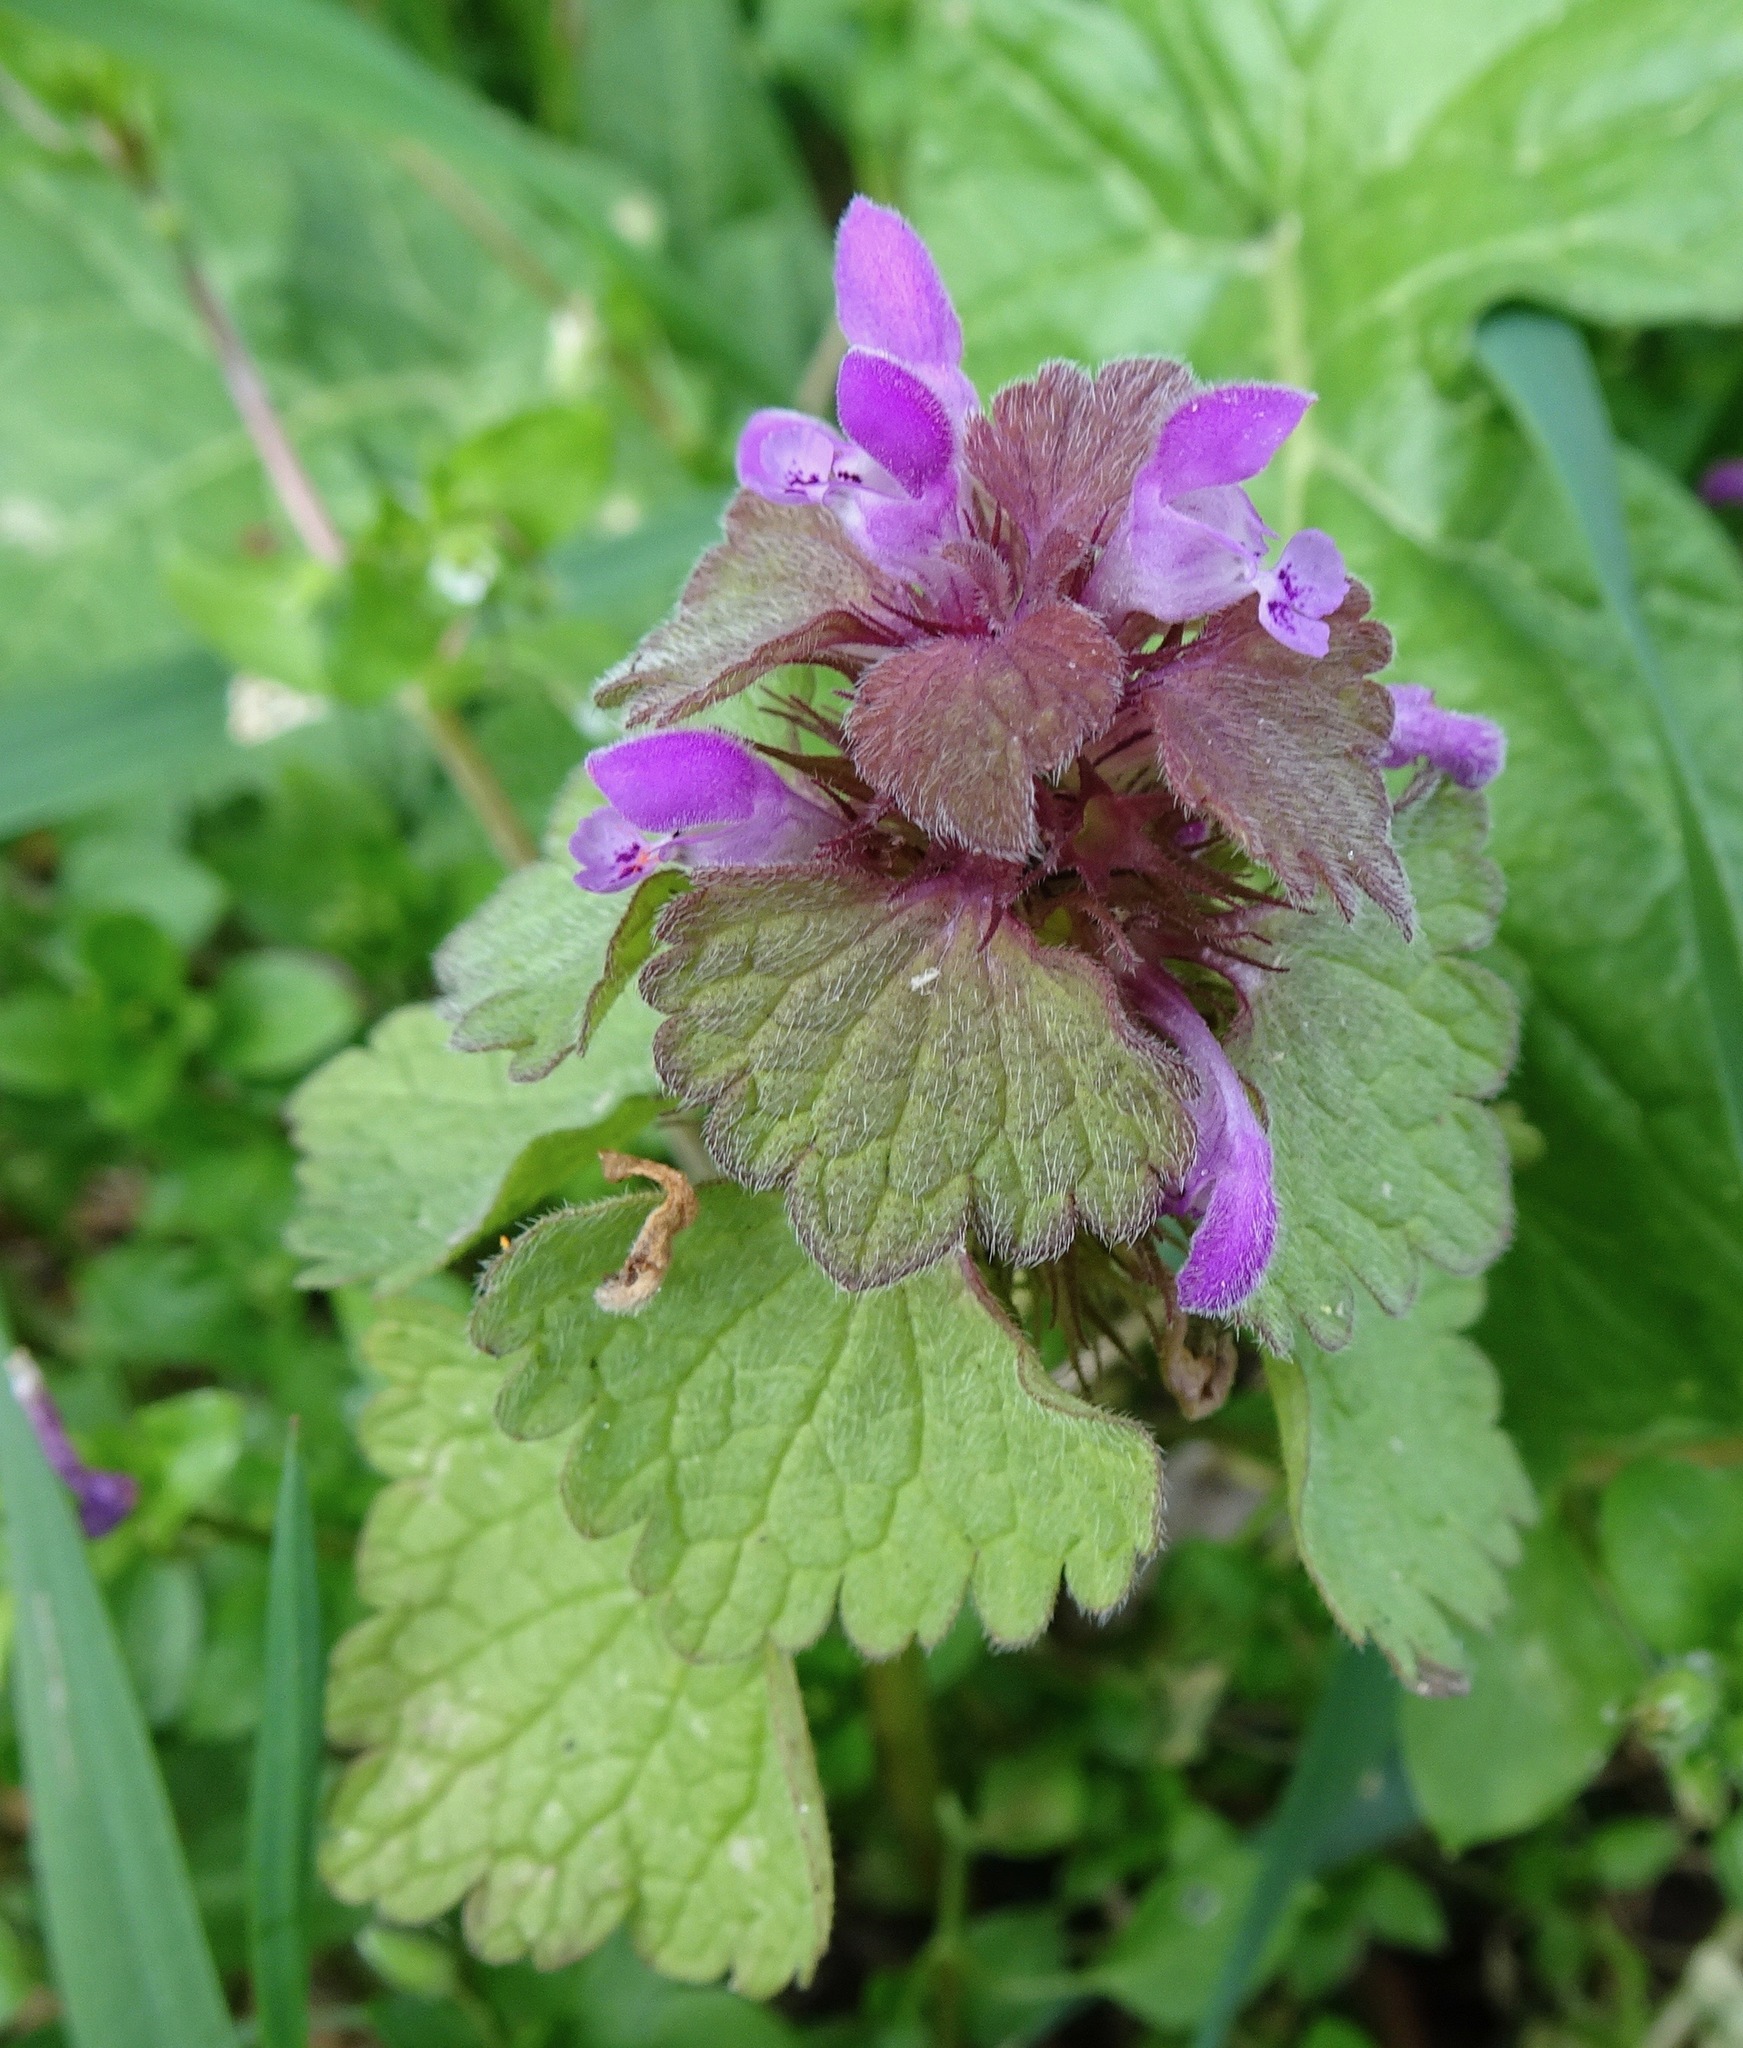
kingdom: Plantae
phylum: Tracheophyta
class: Magnoliopsida
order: Lamiales
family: Lamiaceae
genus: Lamium
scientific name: Lamium purpureum
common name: Red dead-nettle
